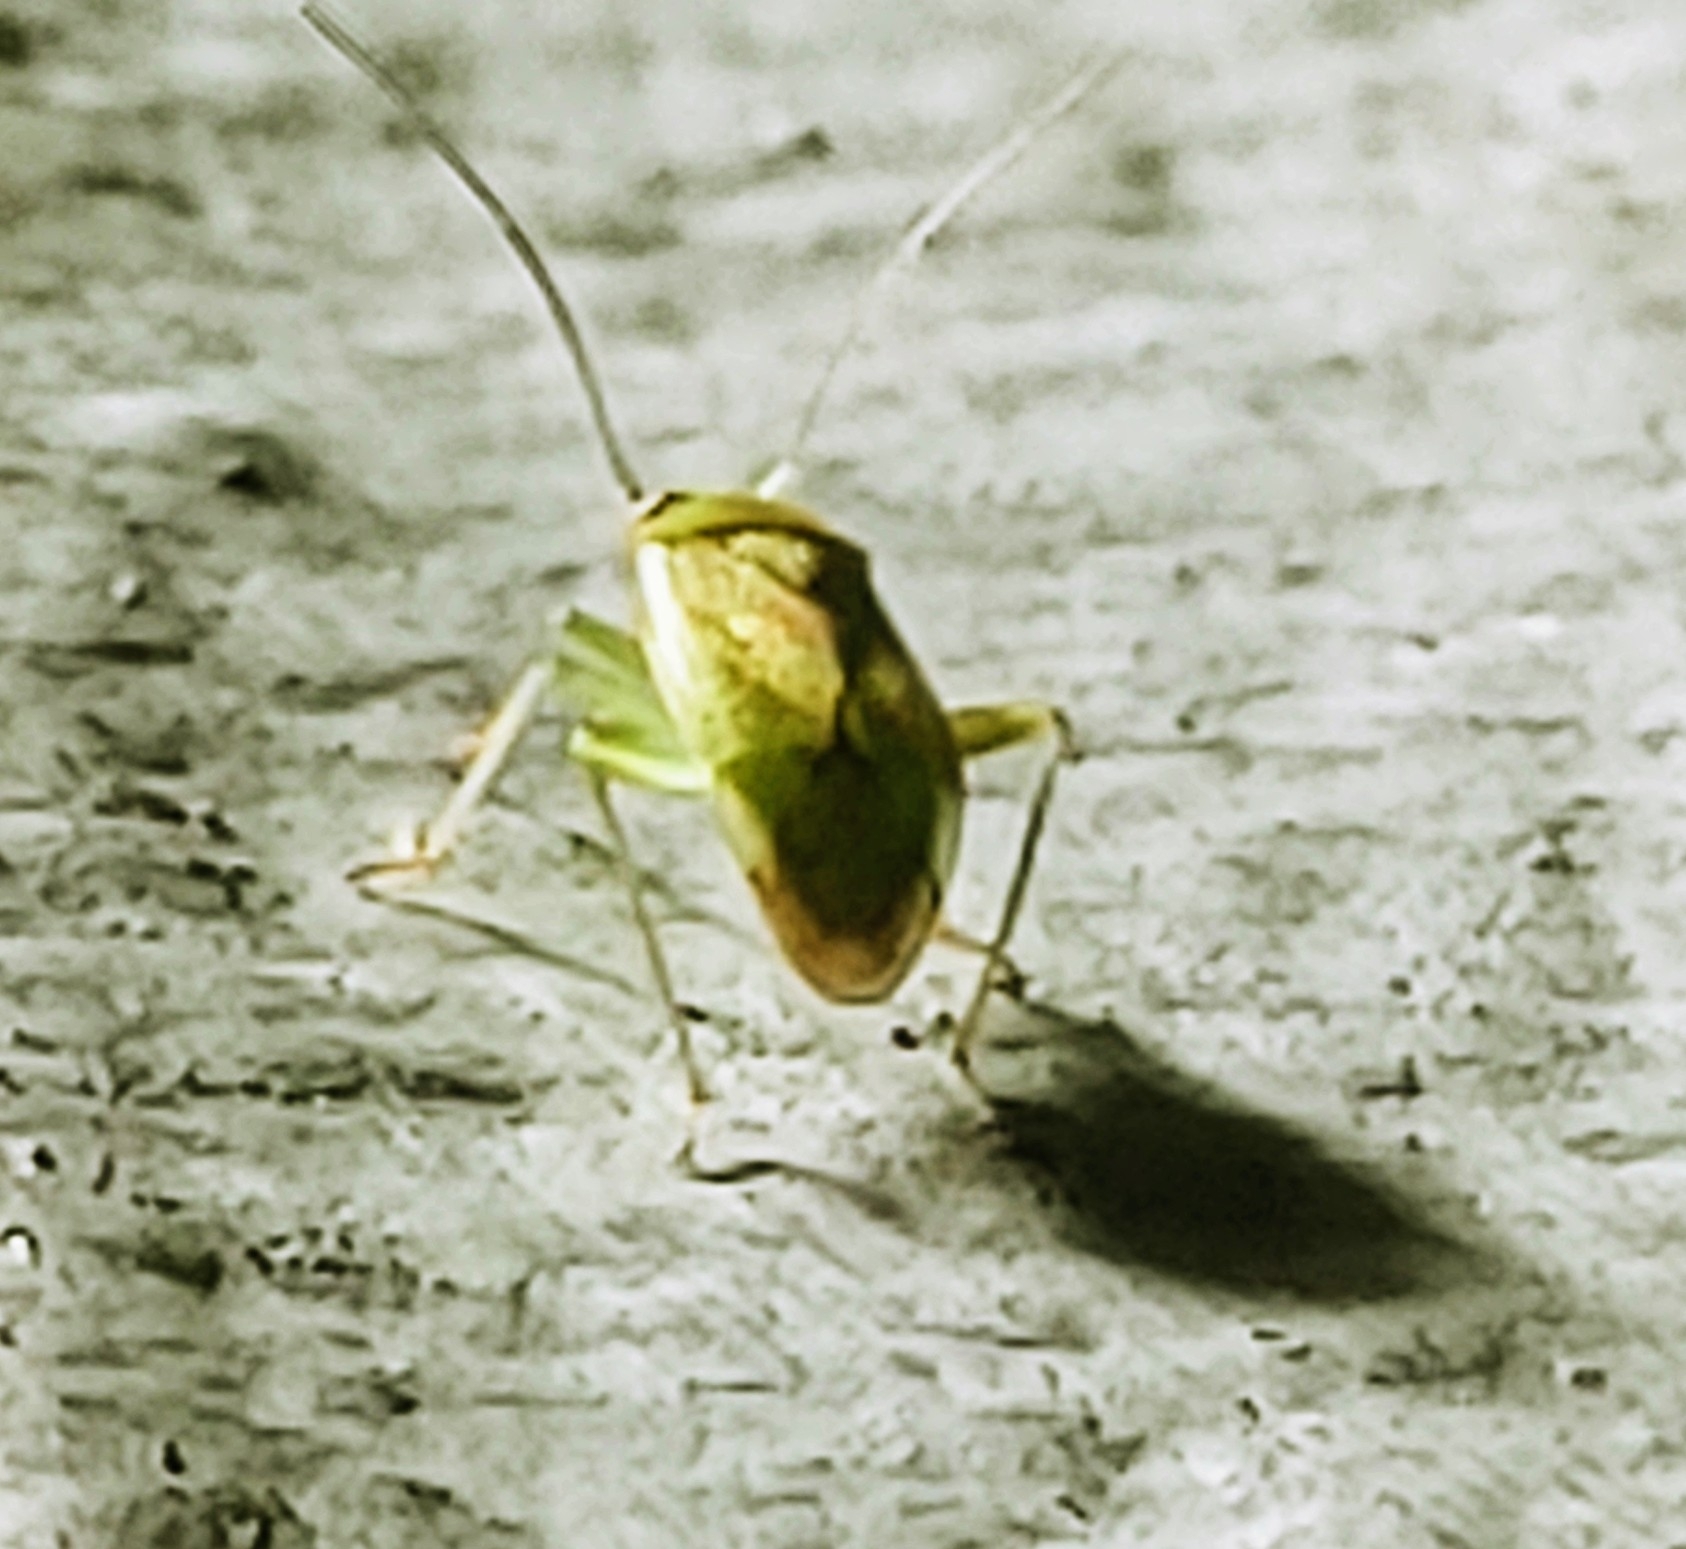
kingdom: Animalia
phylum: Arthropoda
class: Insecta
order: Hemiptera
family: Miridae
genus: Taylorilygus
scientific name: Taylorilygus apicalis
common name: Plant bug
